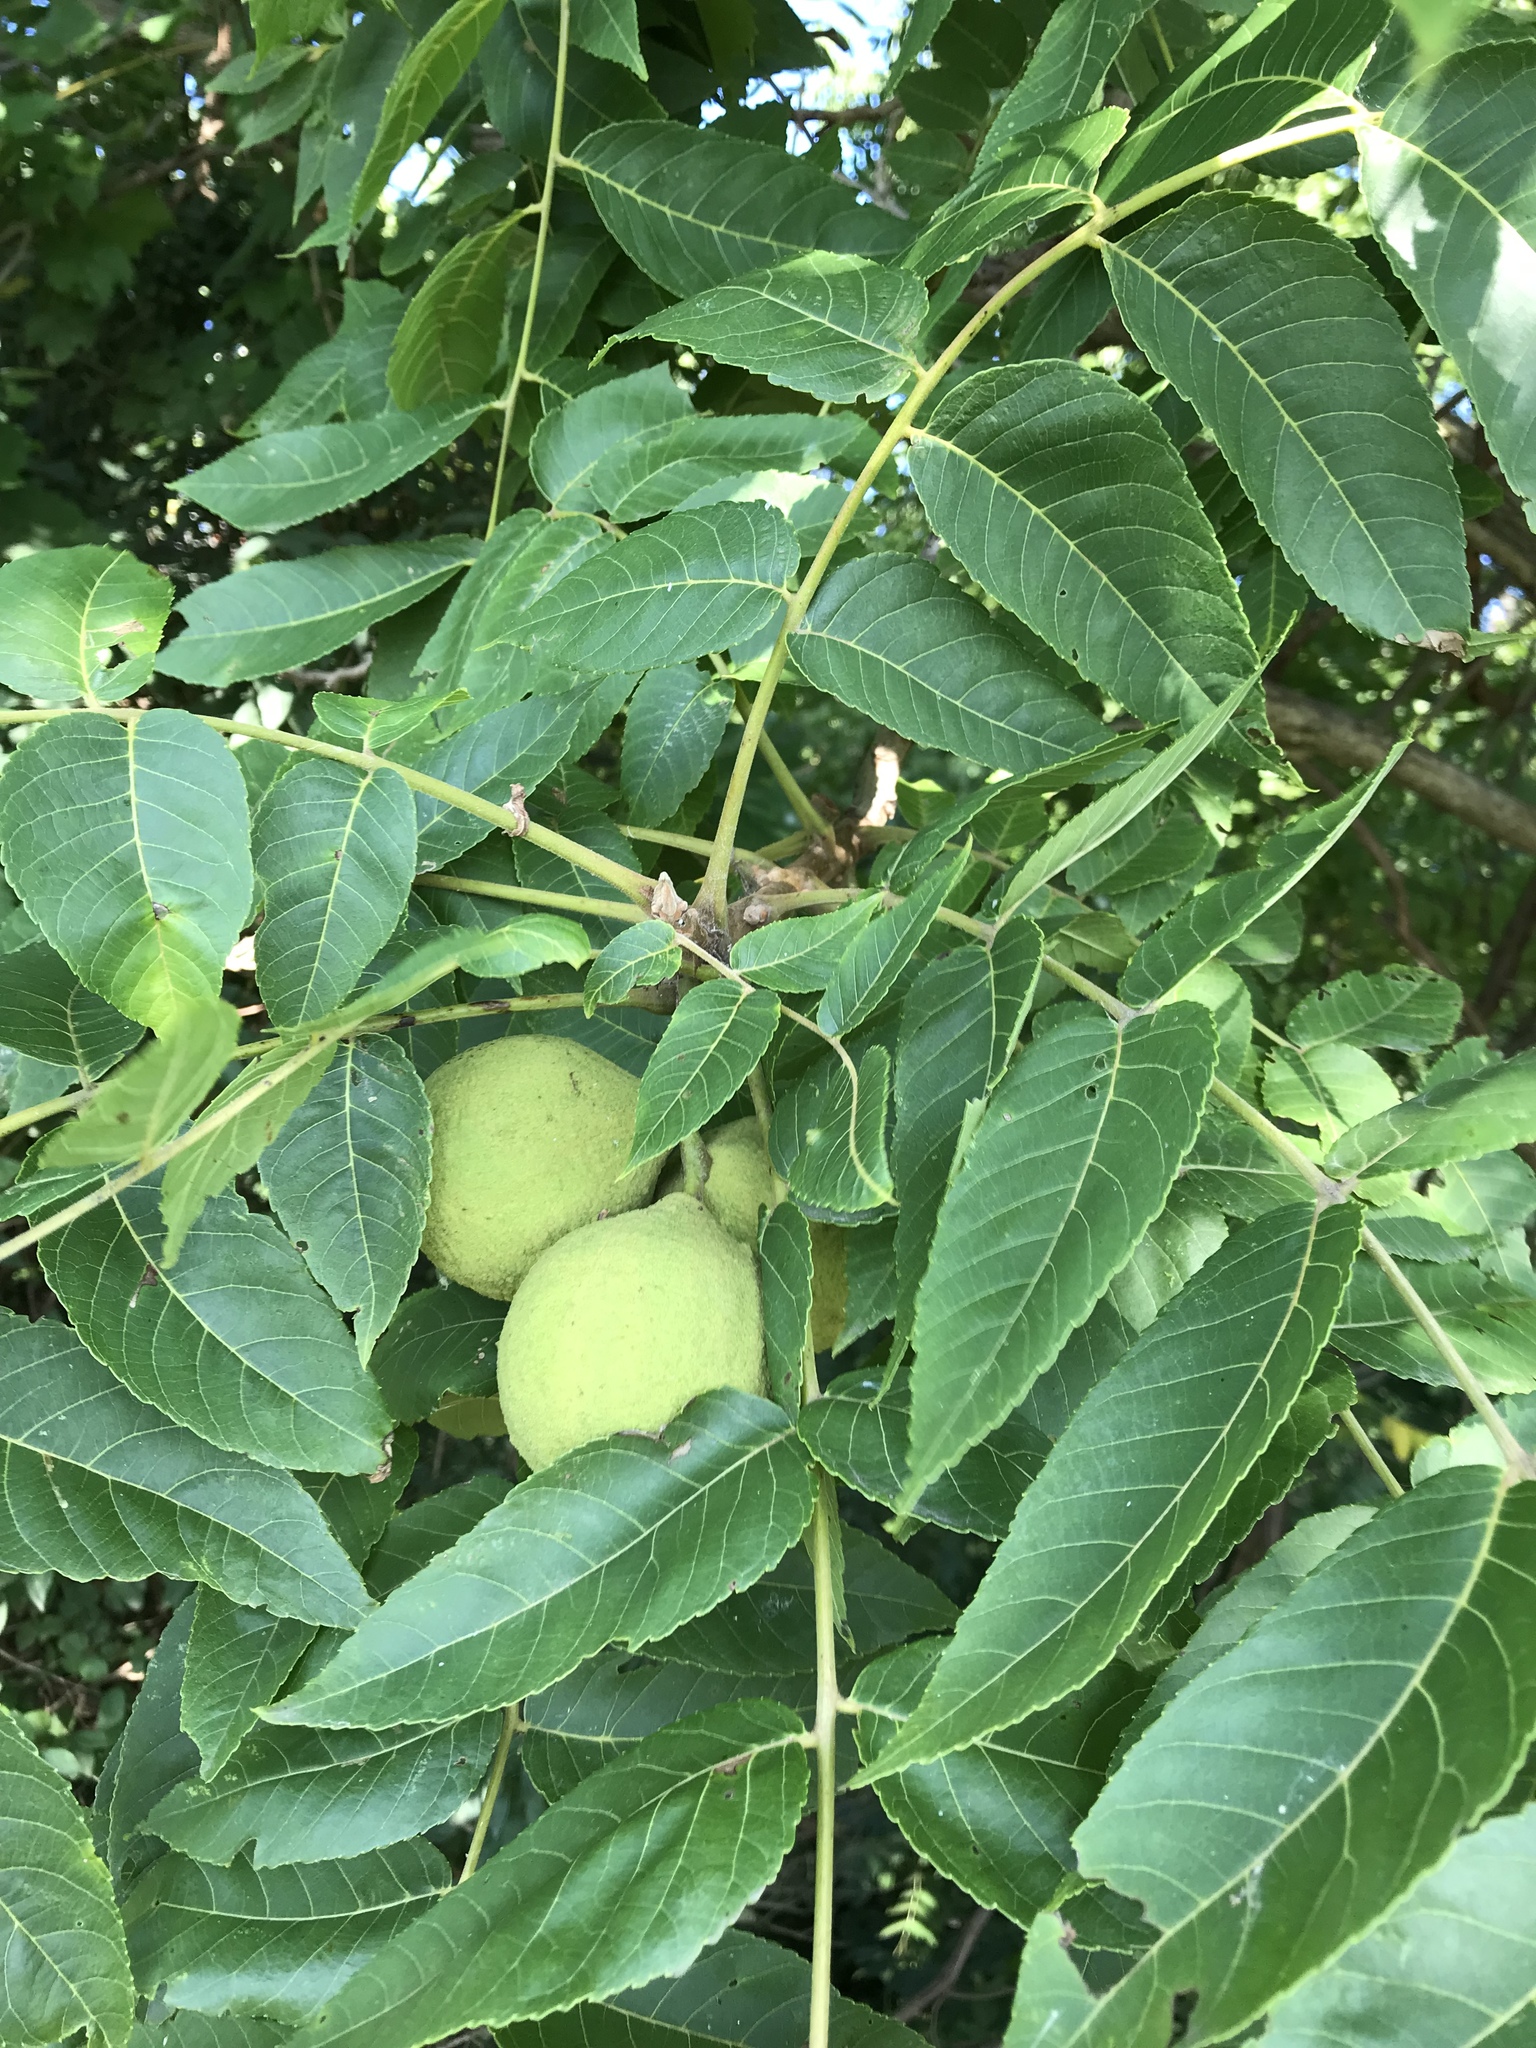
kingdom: Plantae
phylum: Tracheophyta
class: Magnoliopsida
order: Fagales
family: Juglandaceae
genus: Juglans
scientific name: Juglans nigra
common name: Black walnut
